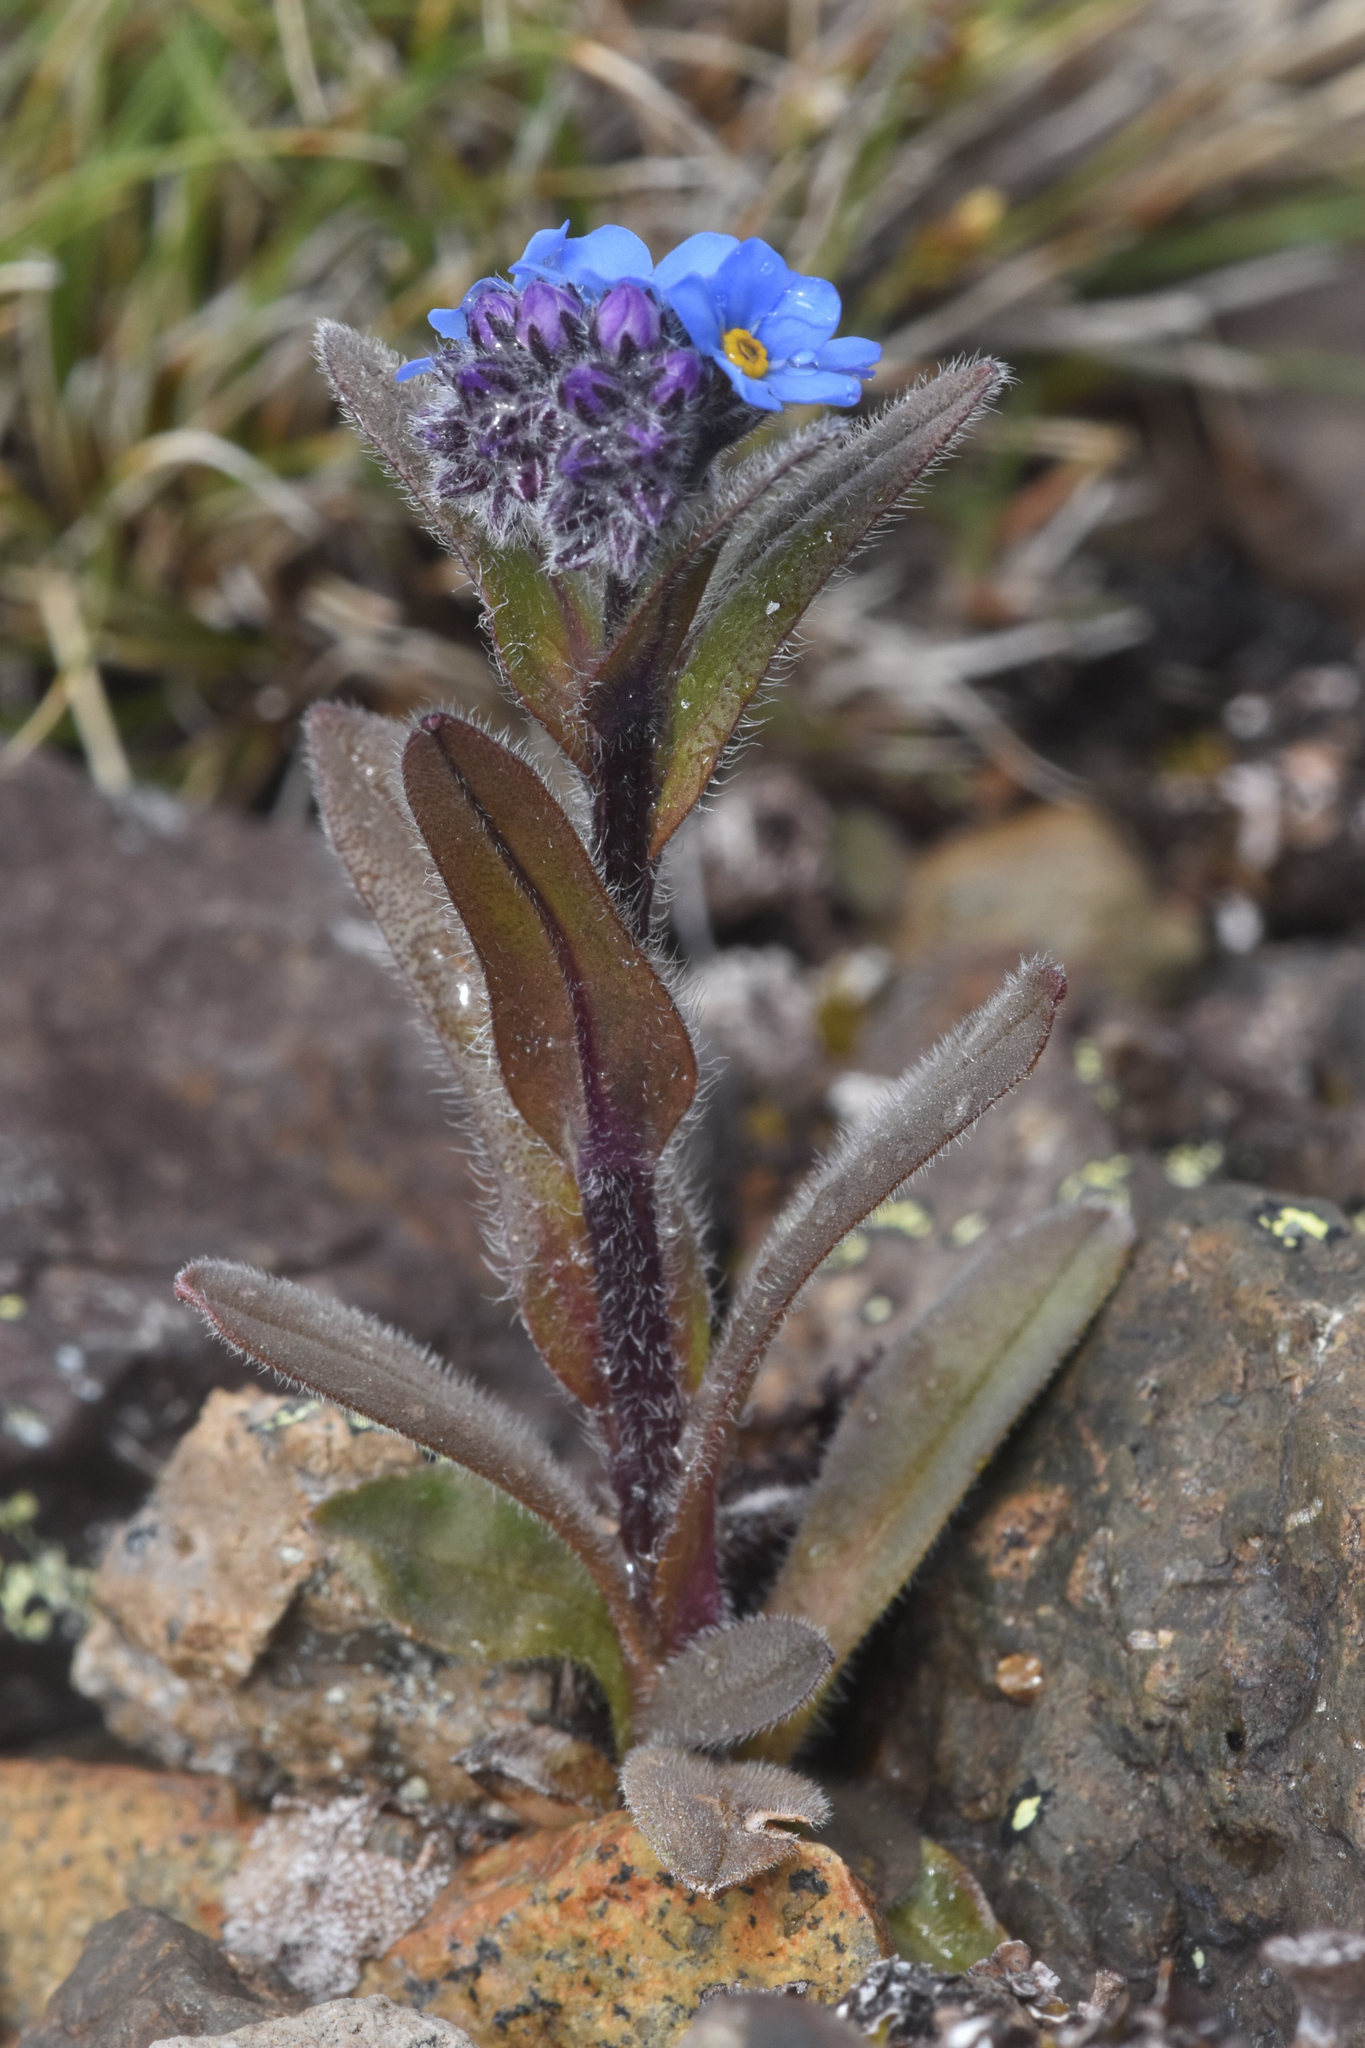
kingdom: Plantae
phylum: Tracheophyta
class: Magnoliopsida
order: Boraginales
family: Boraginaceae
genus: Myosotis
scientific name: Myosotis asiatica
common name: Asian forget-me-not
